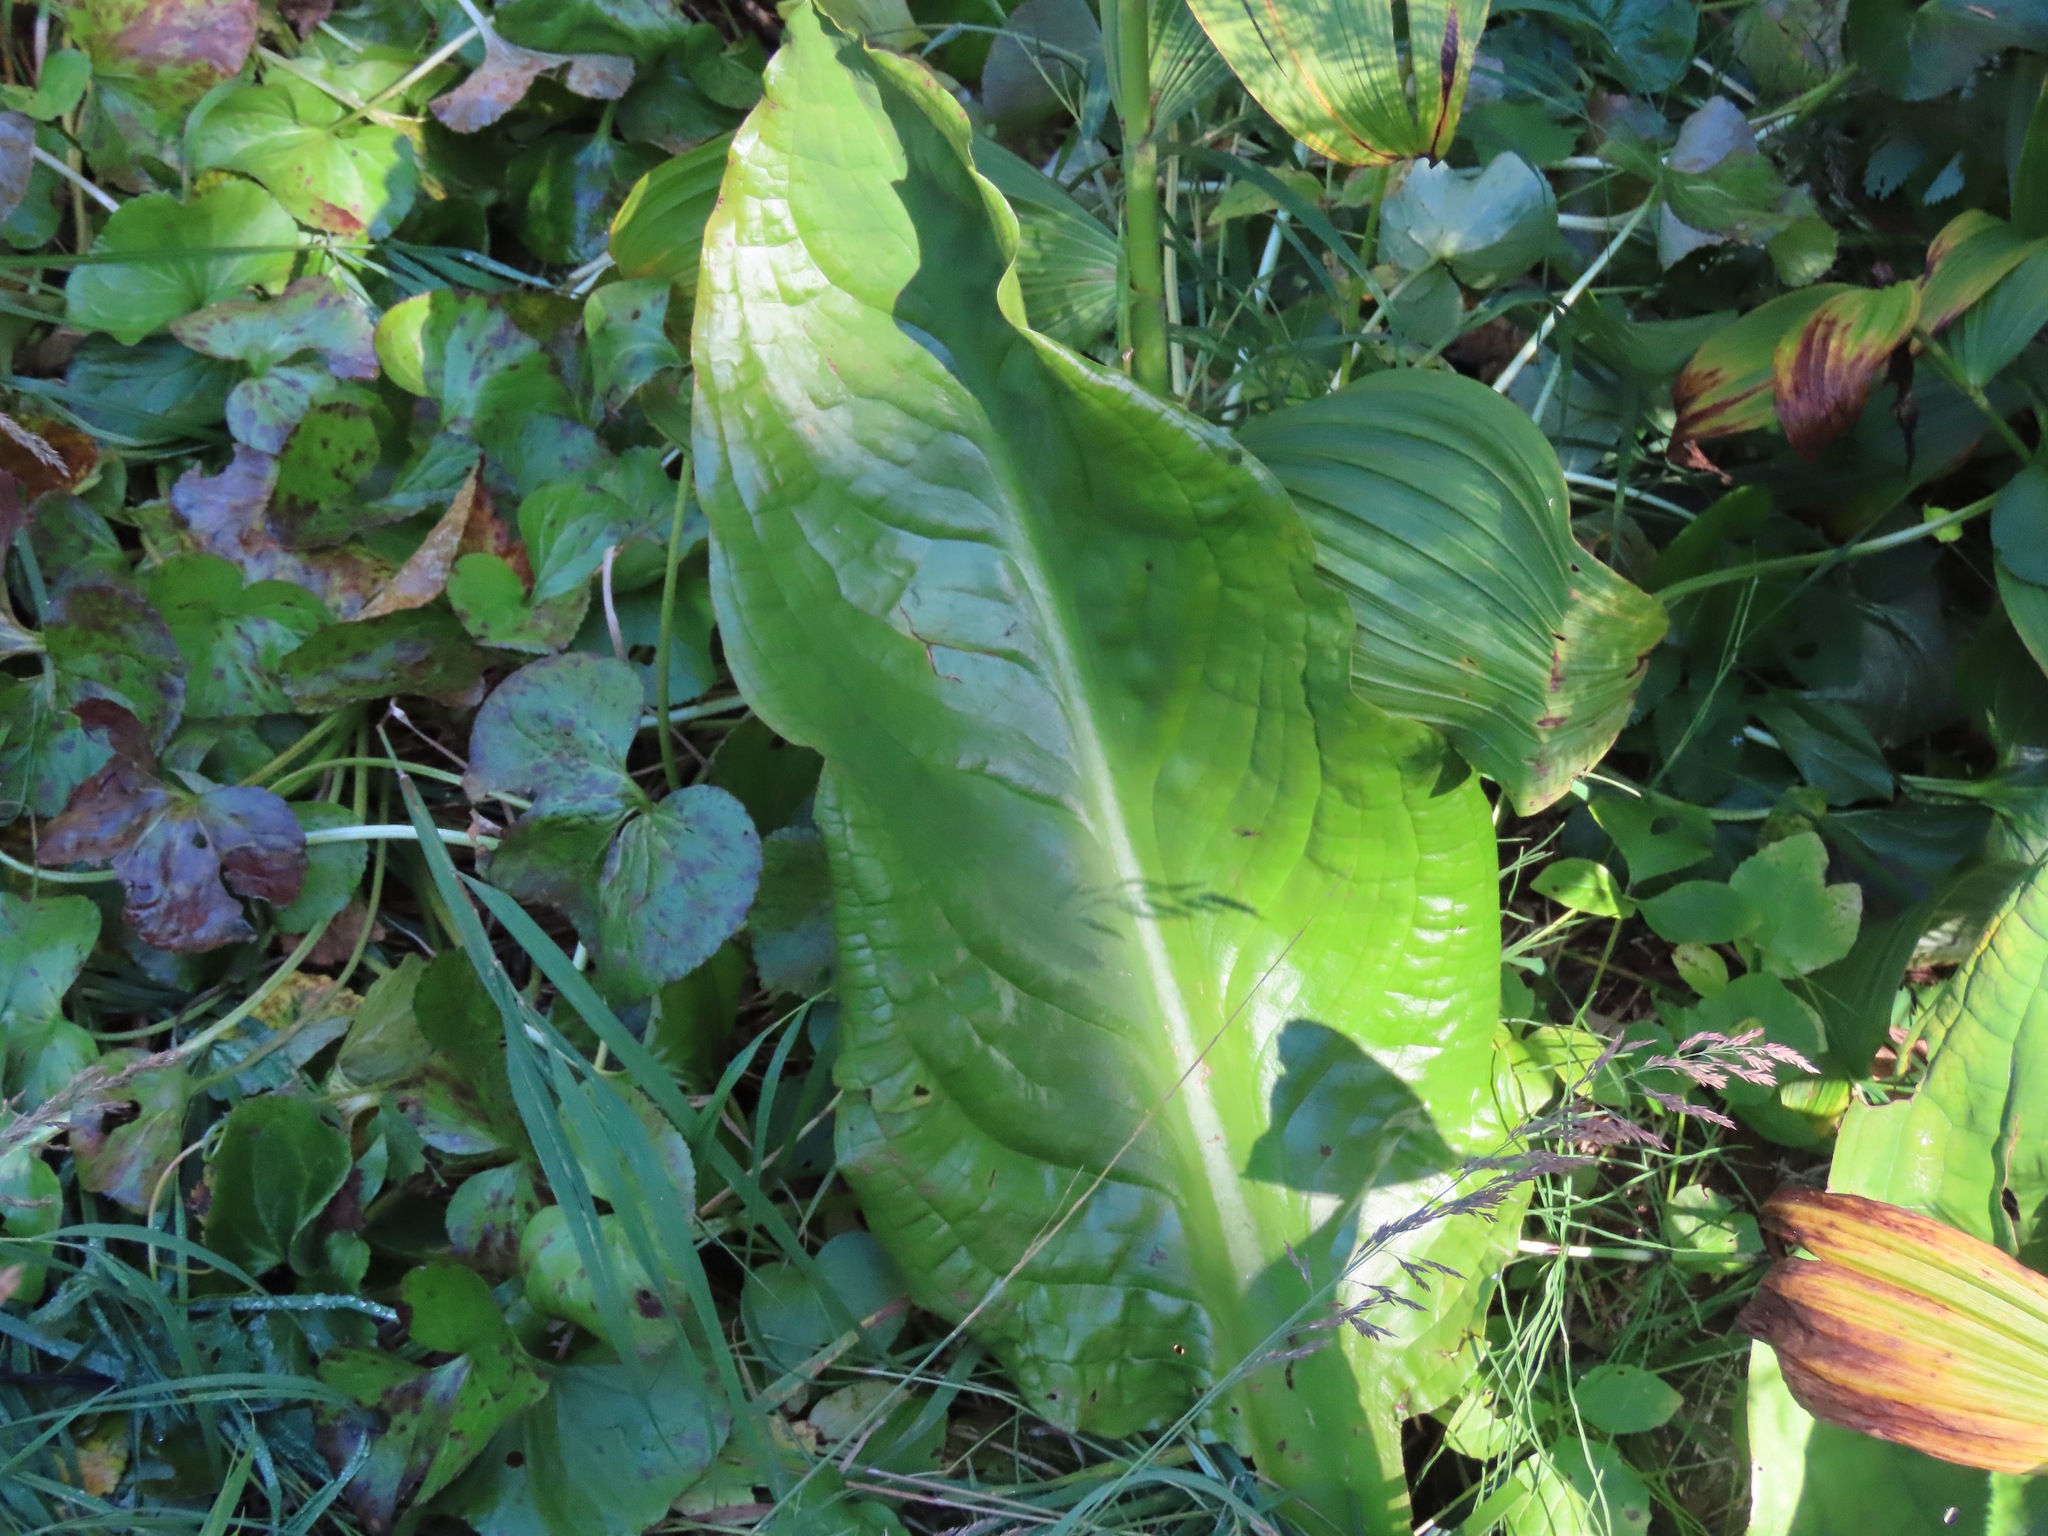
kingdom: Plantae
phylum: Tracheophyta
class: Liliopsida
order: Alismatales
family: Araceae
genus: Lysichiton
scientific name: Lysichiton americanus
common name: American skunk cabbage
